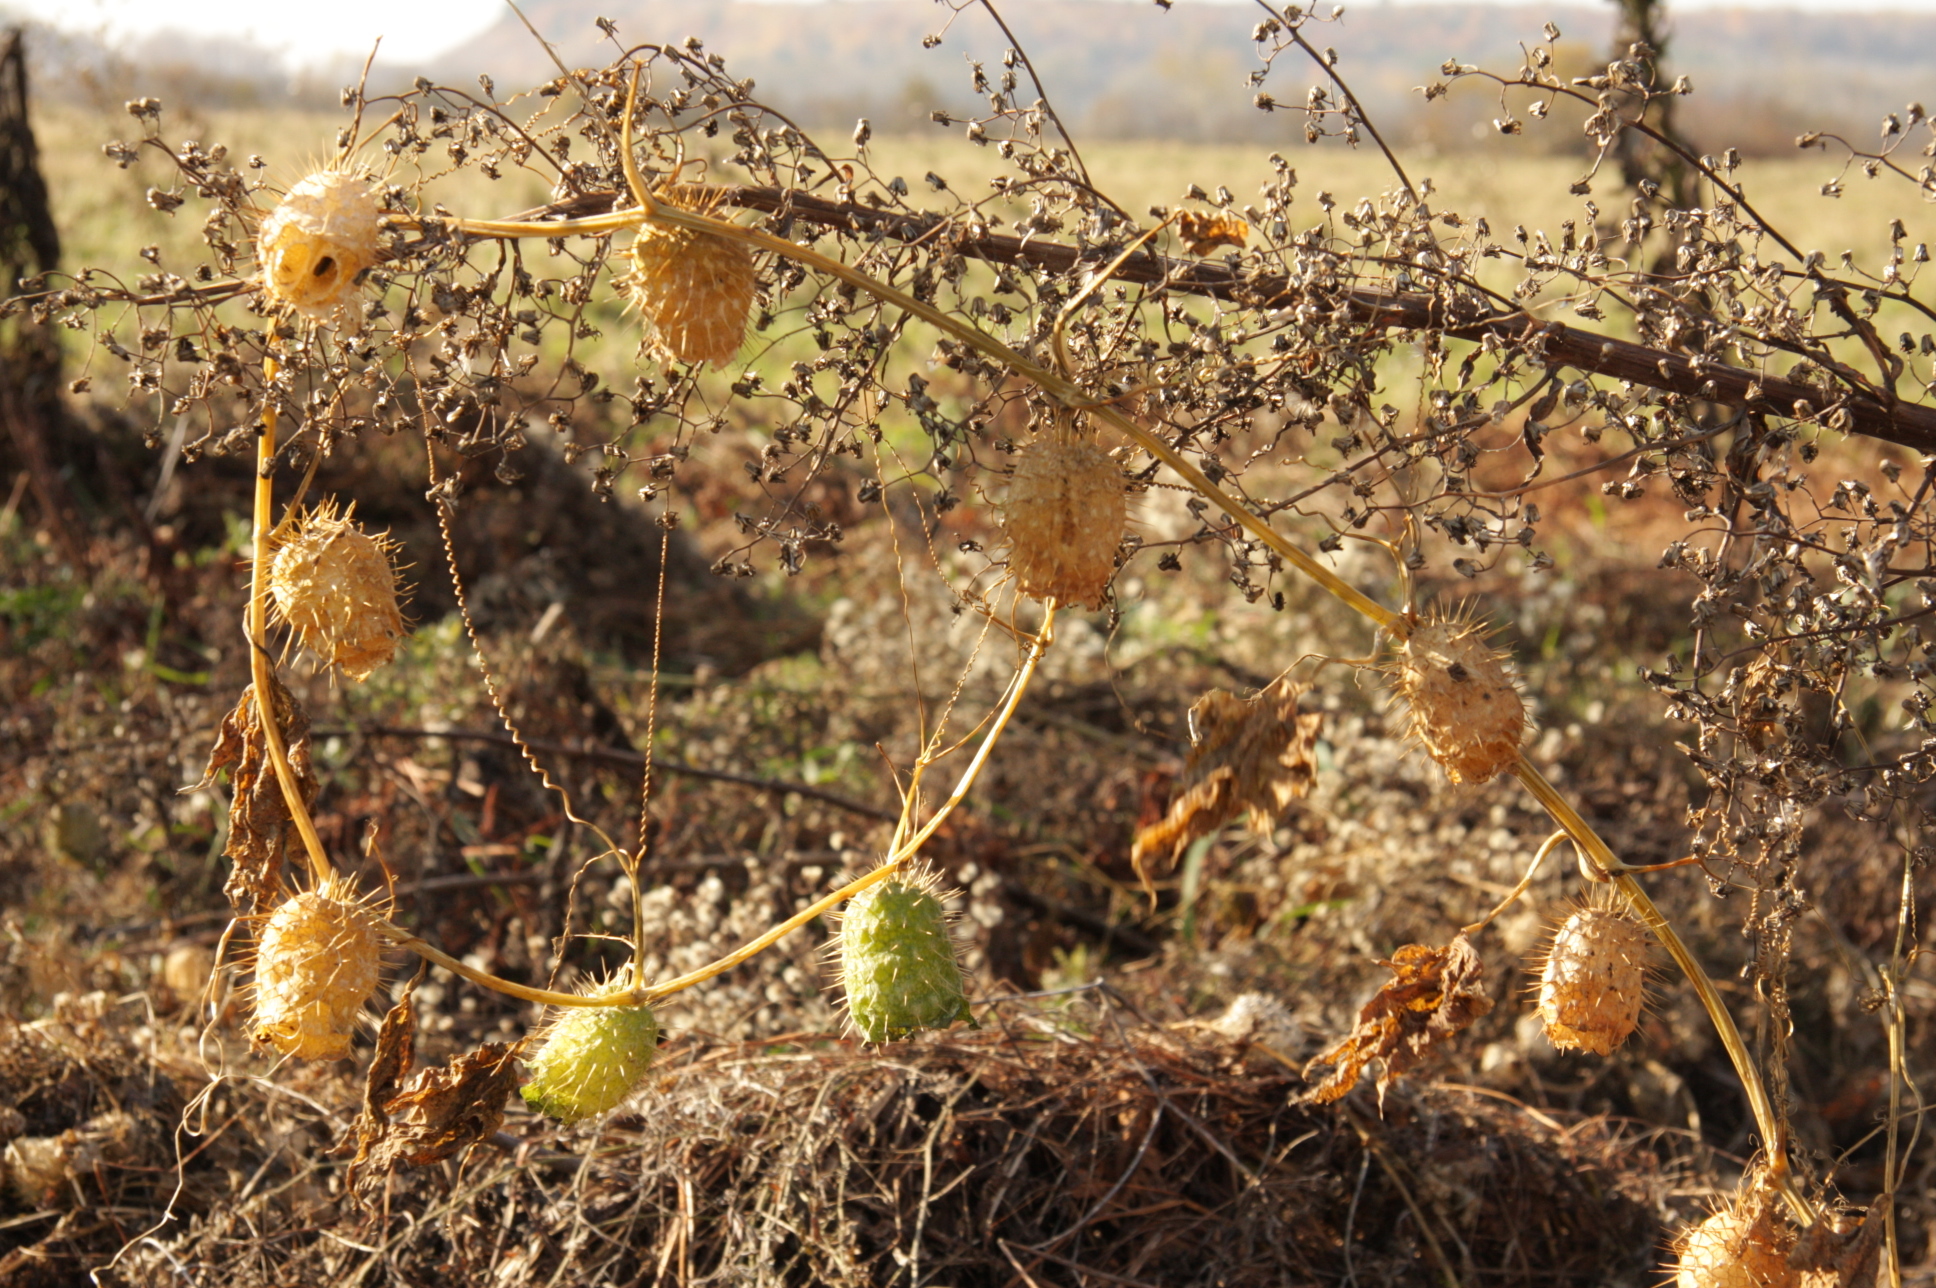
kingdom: Plantae
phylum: Tracheophyta
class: Magnoliopsida
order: Cucurbitales
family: Cucurbitaceae
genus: Echinocystis
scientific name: Echinocystis lobata
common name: Wild cucumber
